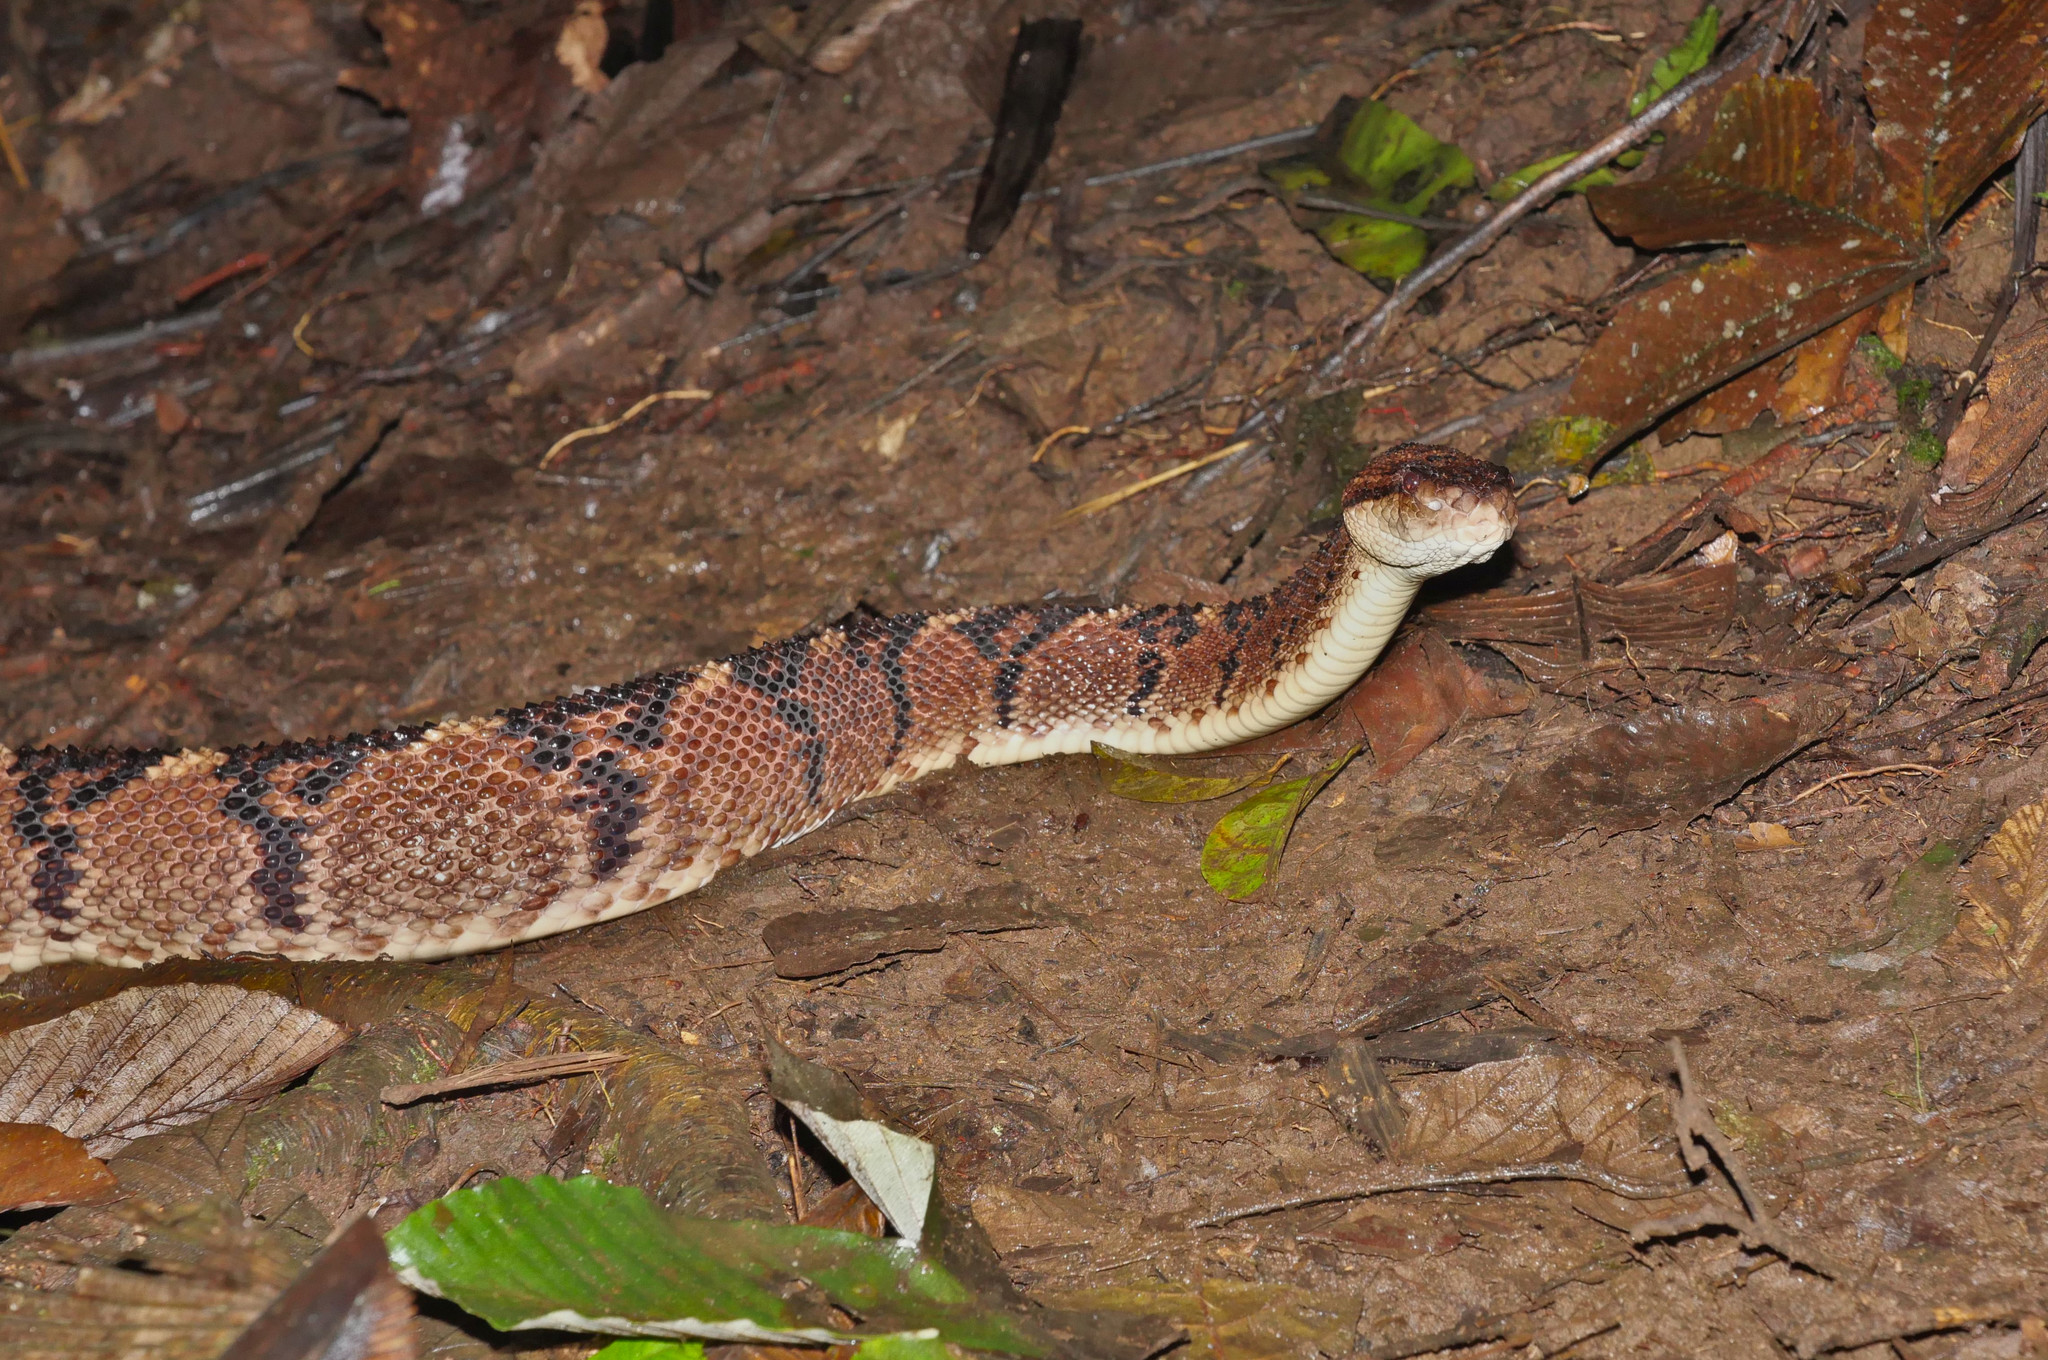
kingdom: Animalia
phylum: Chordata
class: Squamata
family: Viperidae
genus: Lachesis
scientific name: Lachesis acrochorda
